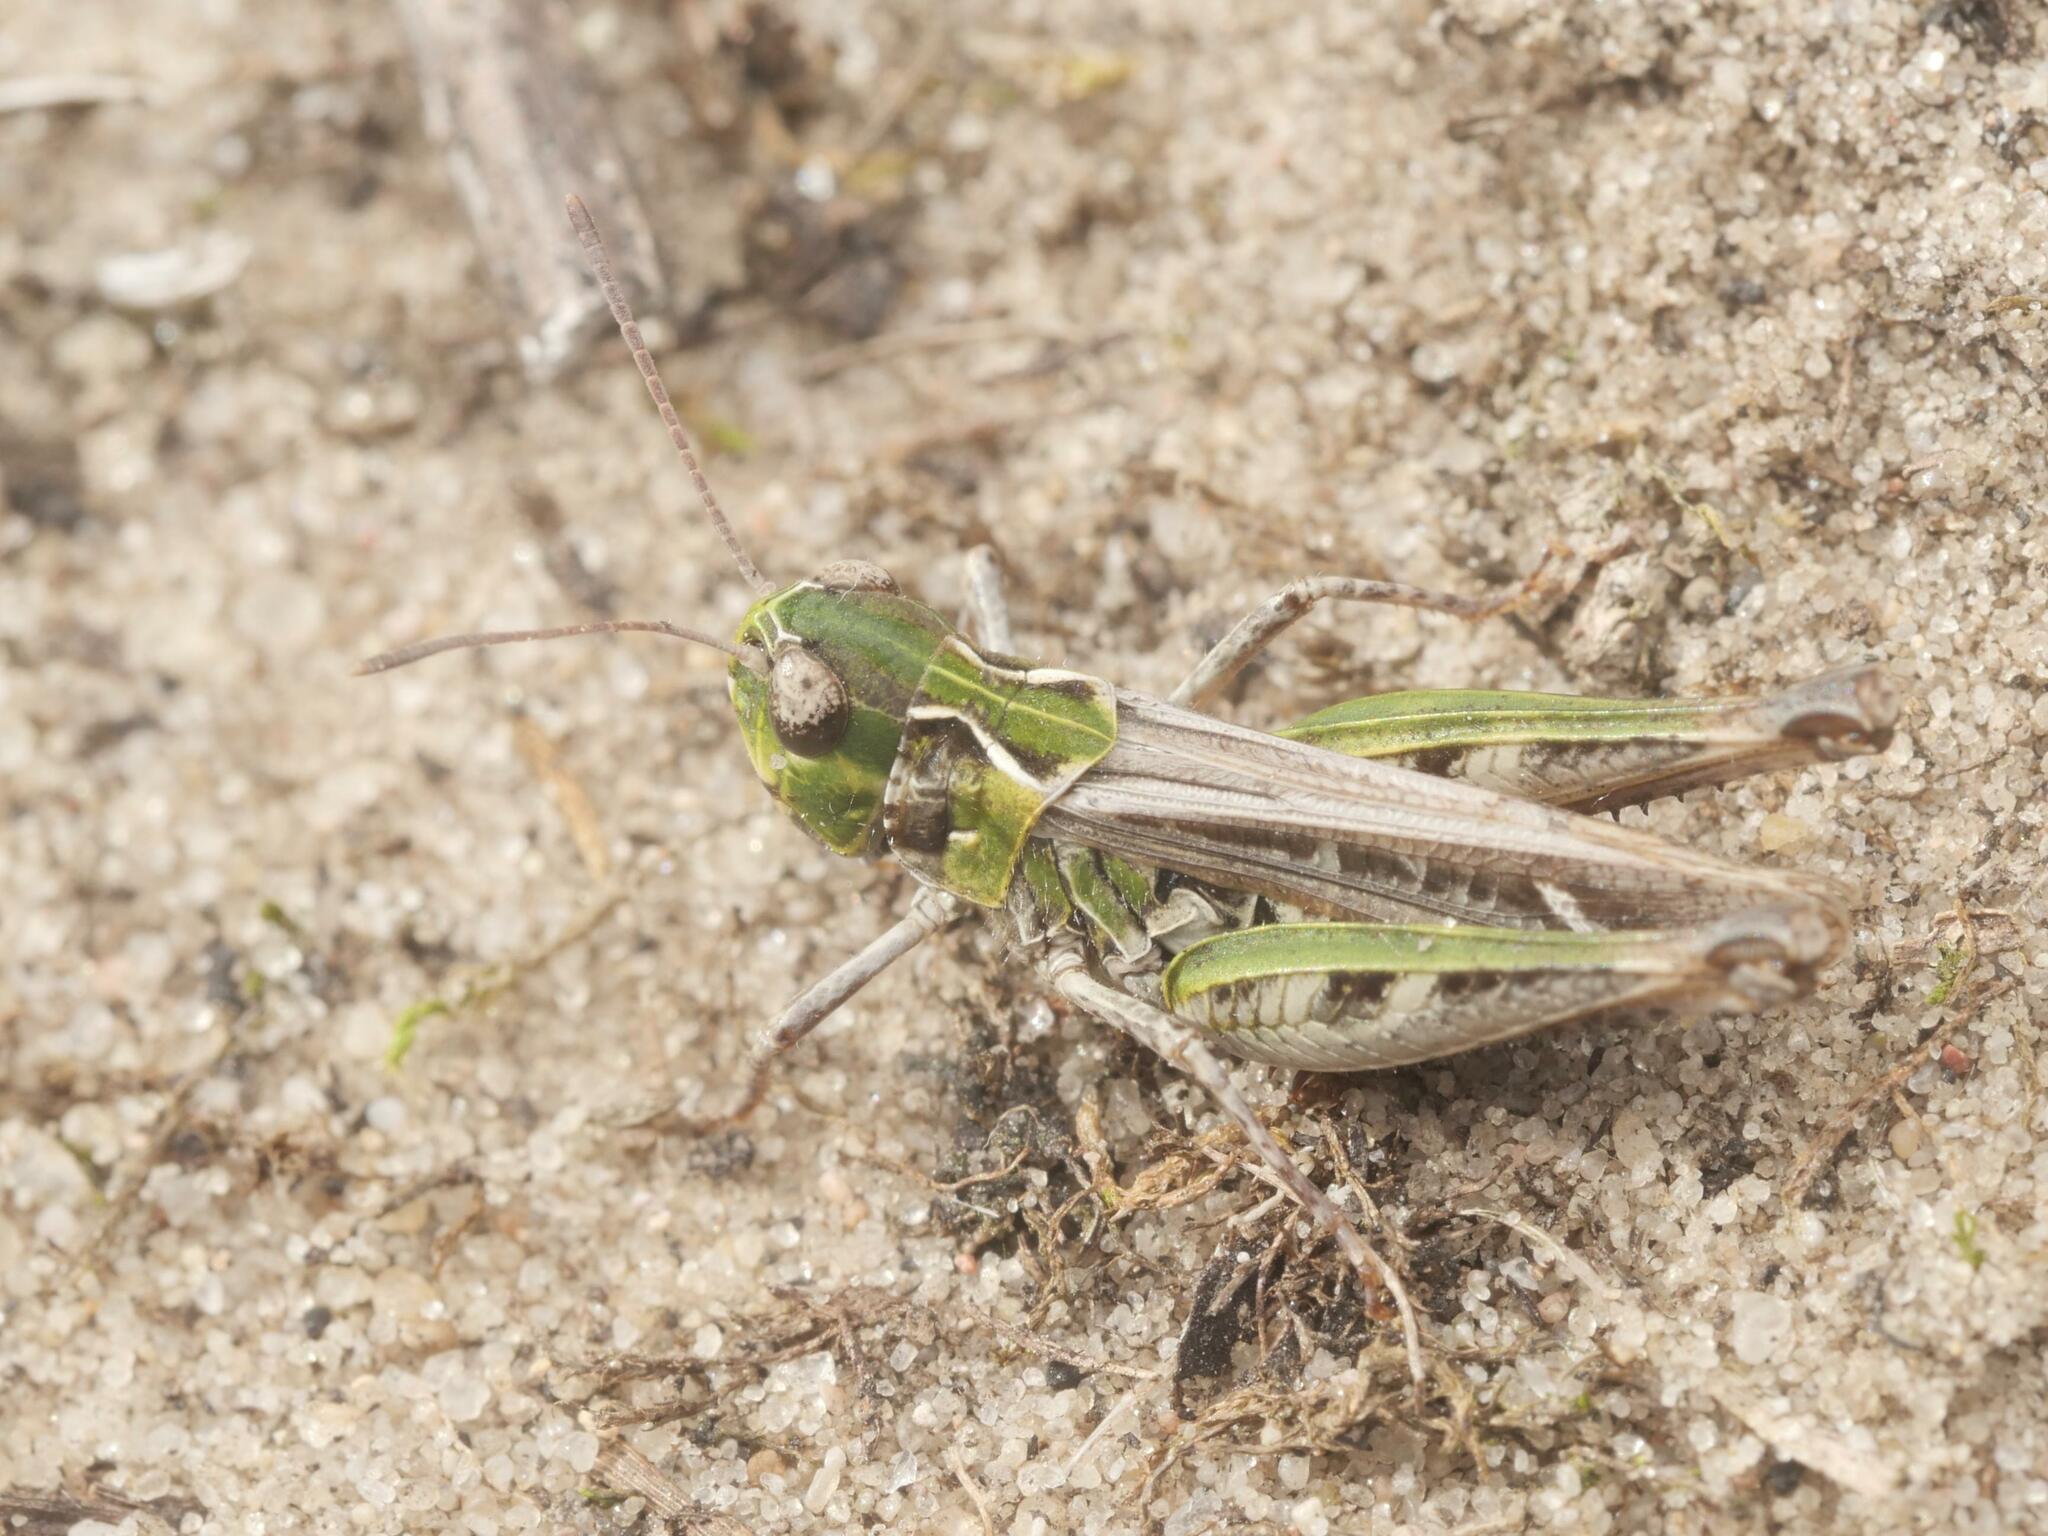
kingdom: Animalia
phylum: Arthropoda
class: Insecta
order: Orthoptera
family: Acrididae
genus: Myrmeleotettix
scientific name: Myrmeleotettix maculatus
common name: Mottled grasshopper
